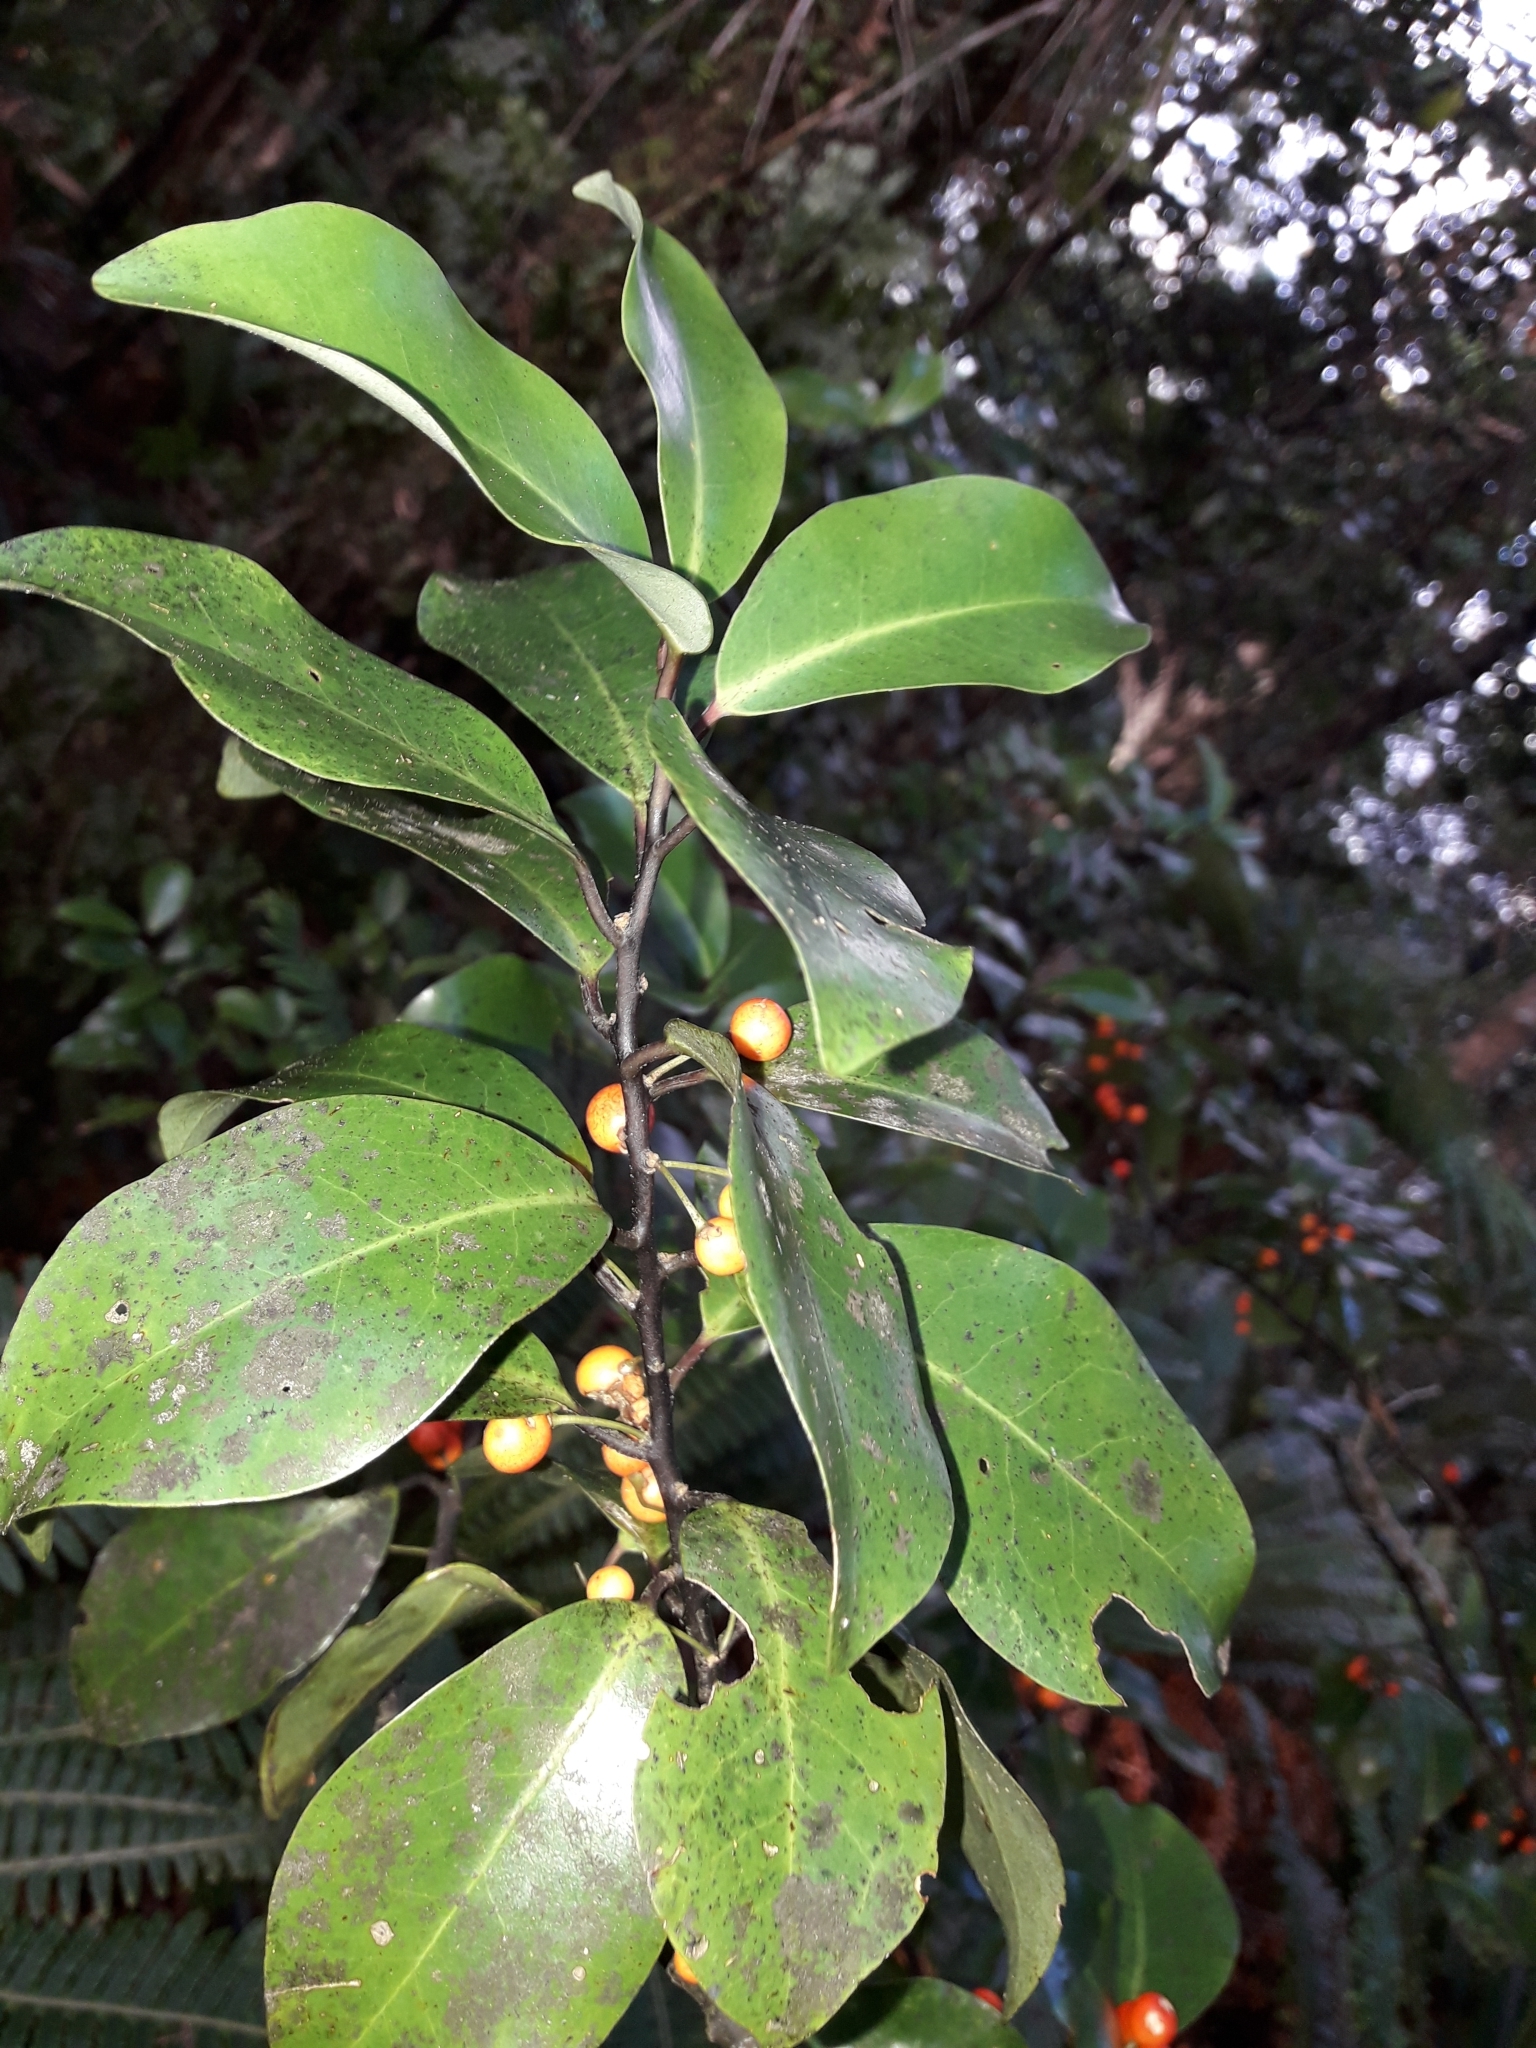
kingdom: Plantae
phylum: Tracheophyta
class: Magnoliopsida
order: Canellales
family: Winteraceae
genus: Pseudowintera
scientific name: Pseudowintera axillaris
